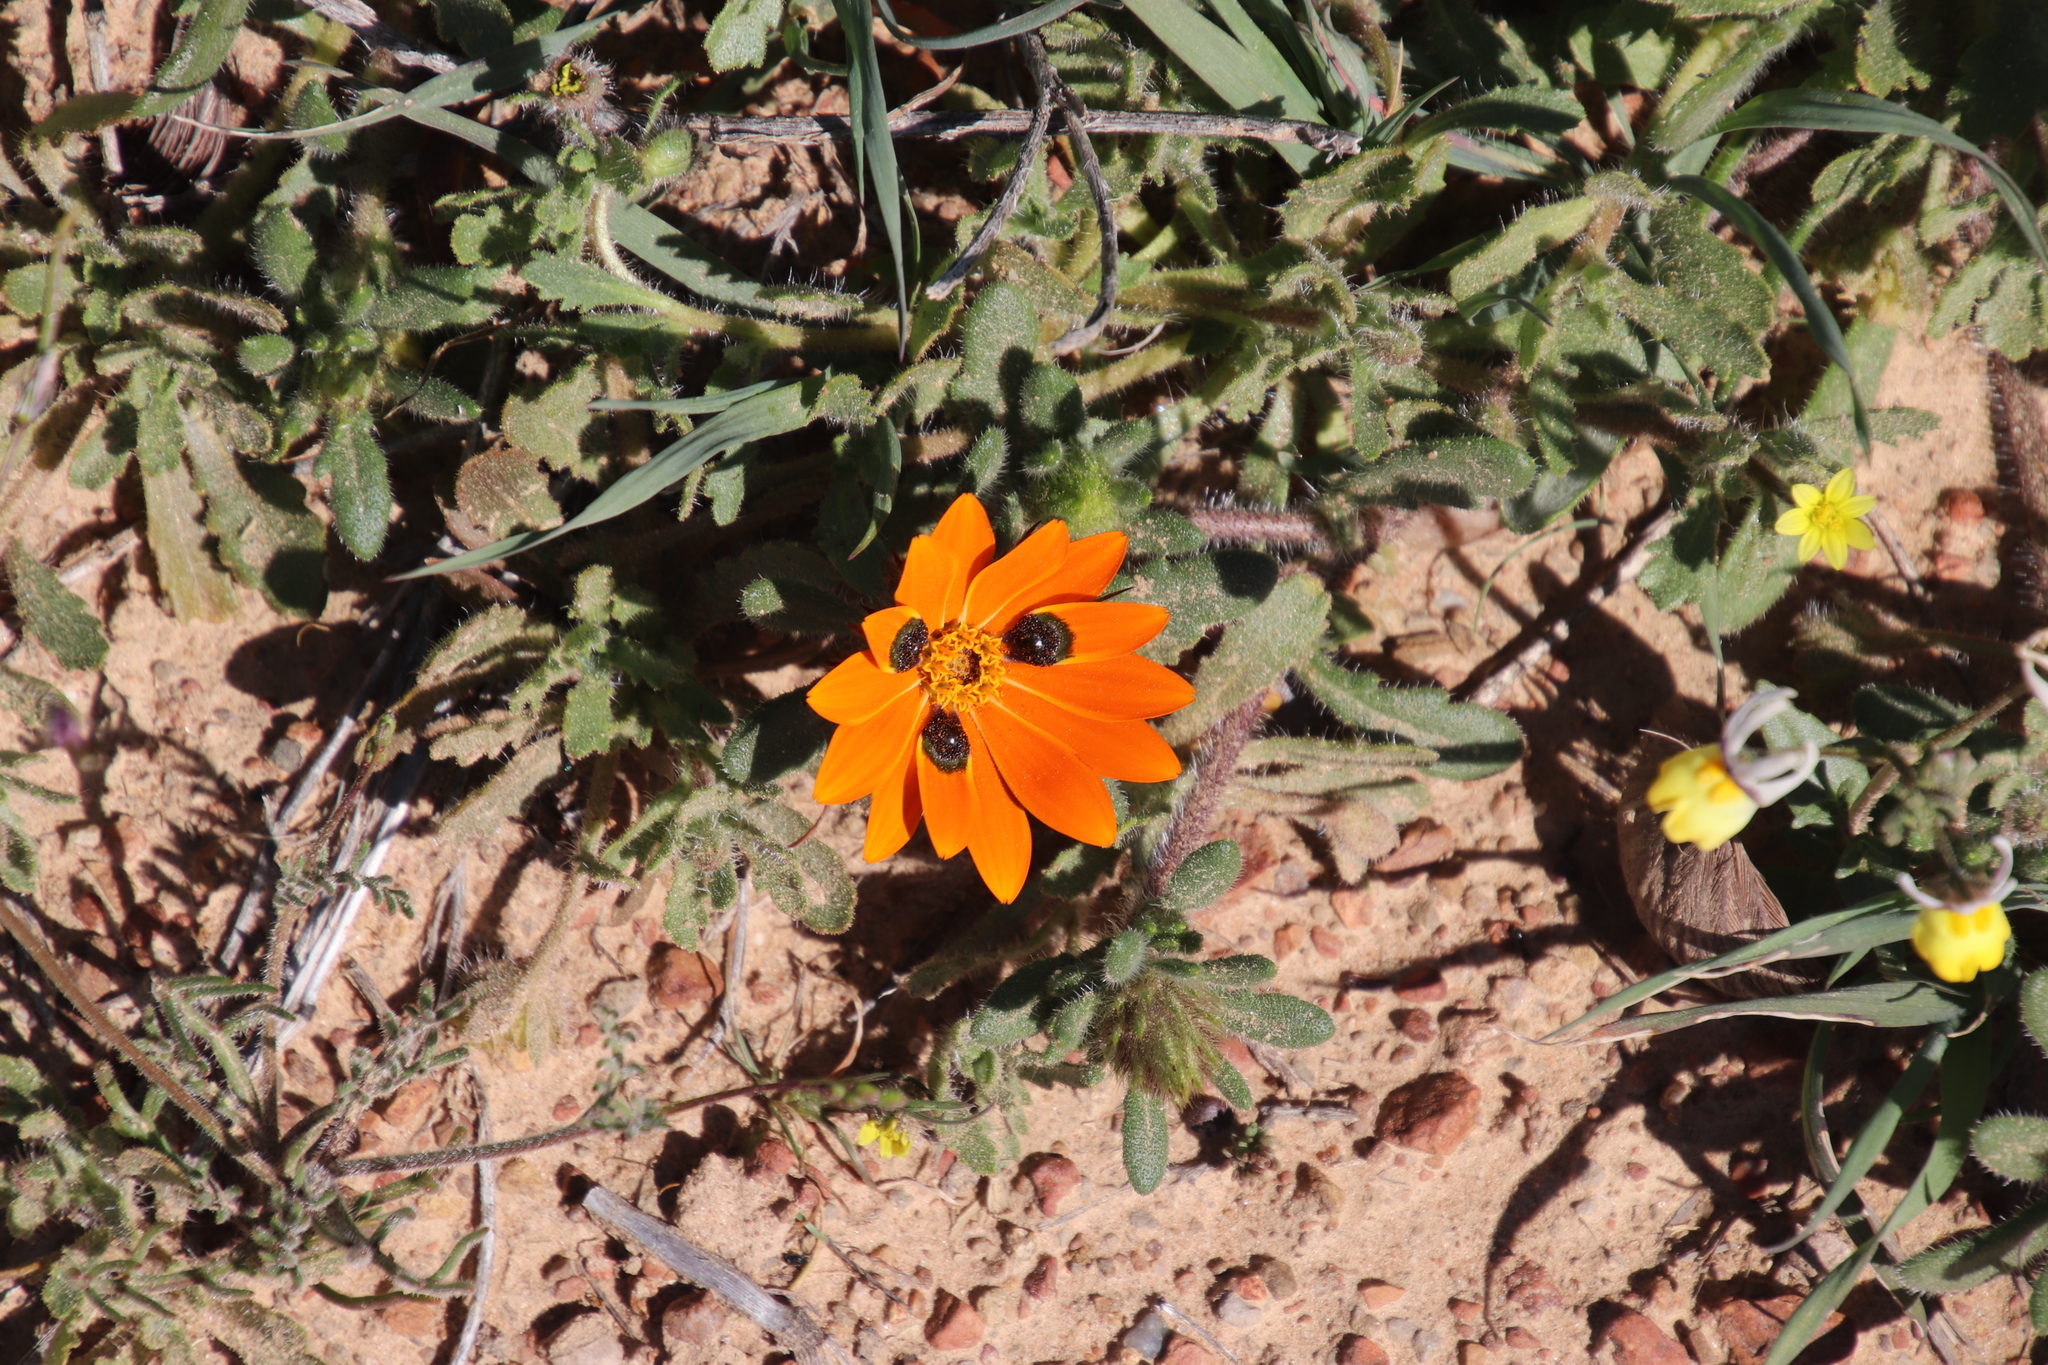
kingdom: Plantae
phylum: Tracheophyta
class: Magnoliopsida
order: Asterales
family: Asteraceae
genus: Gorteria
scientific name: Gorteria diffusa
